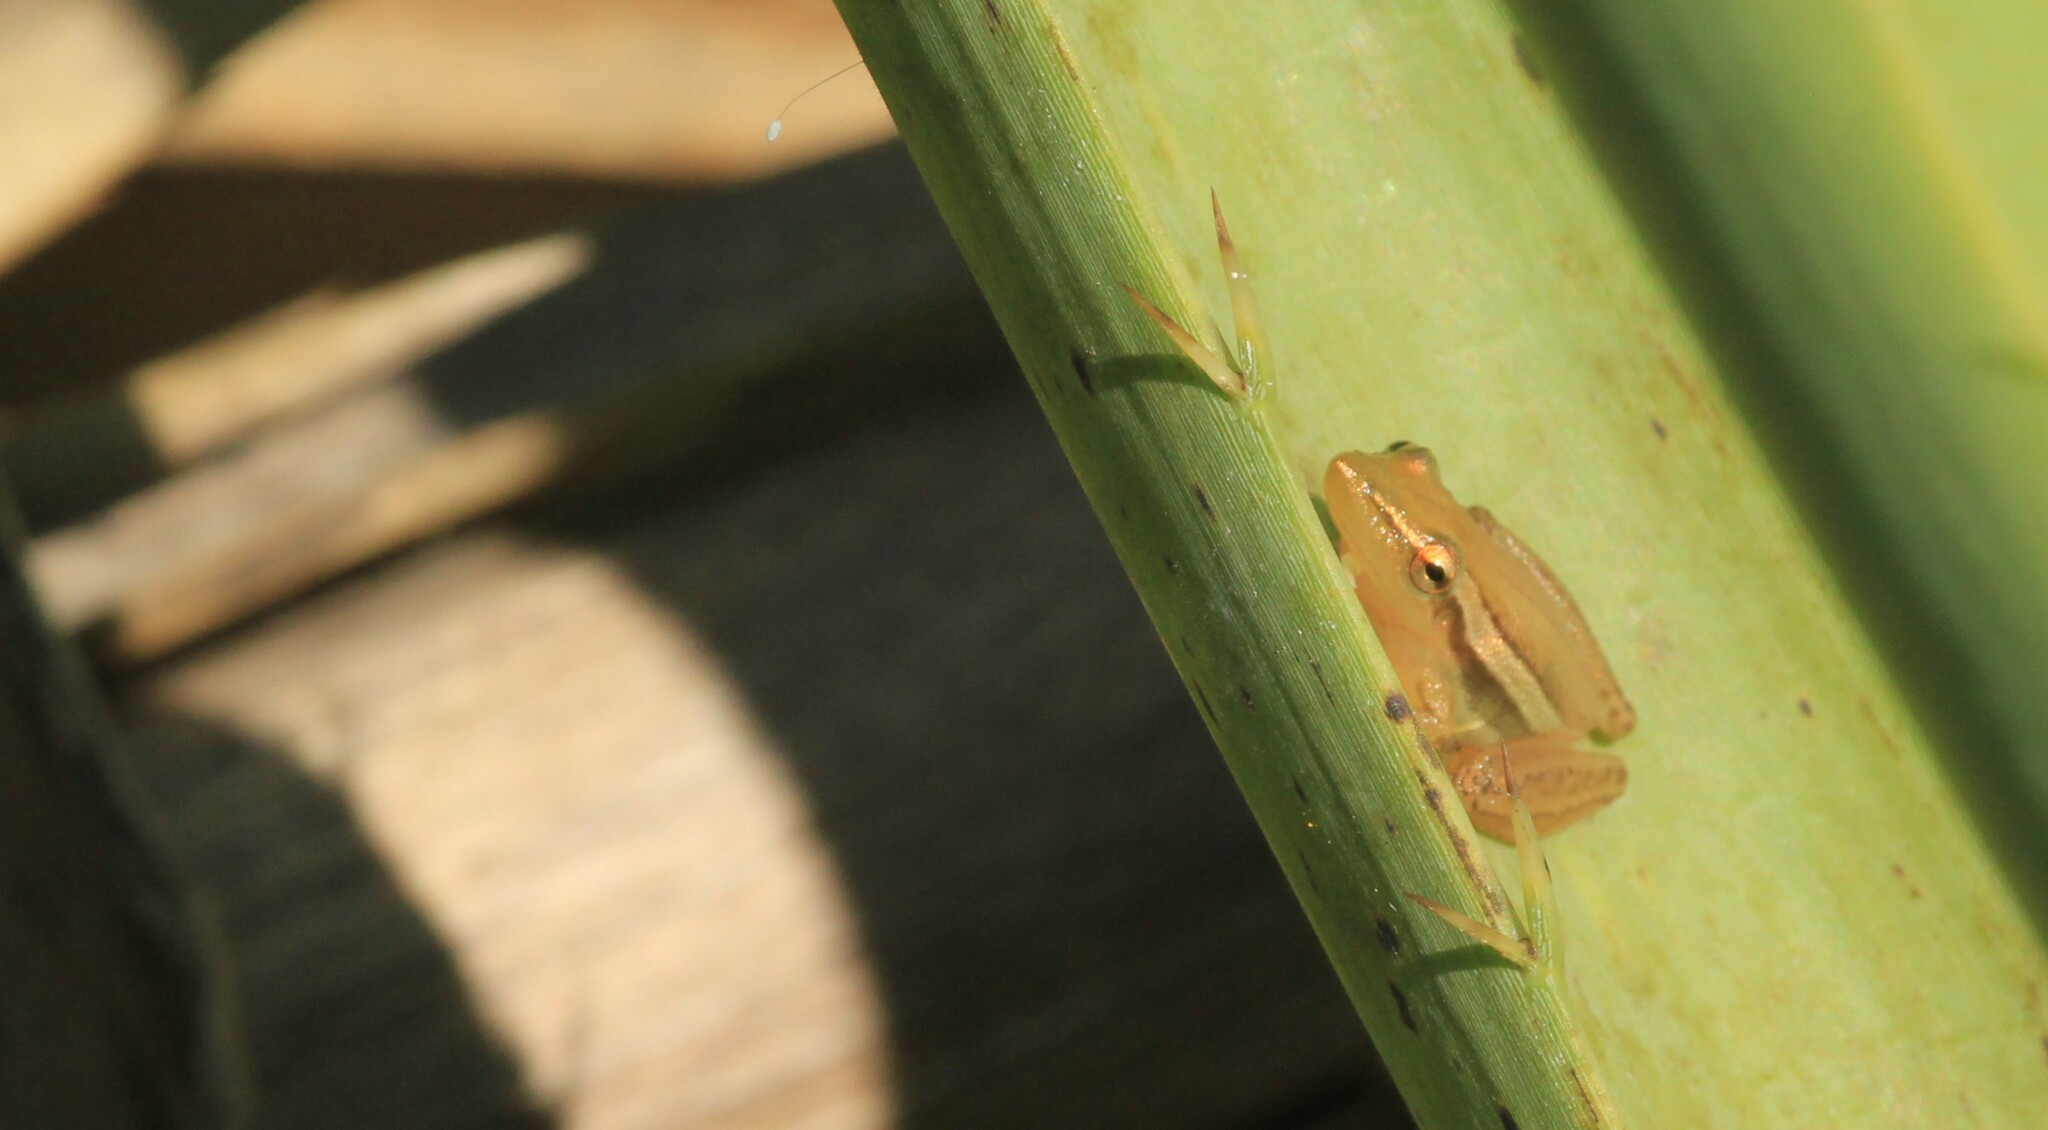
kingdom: Animalia
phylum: Chordata
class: Amphibia
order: Anura
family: Hylidae
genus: Scinax
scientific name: Scinax squalirostris
